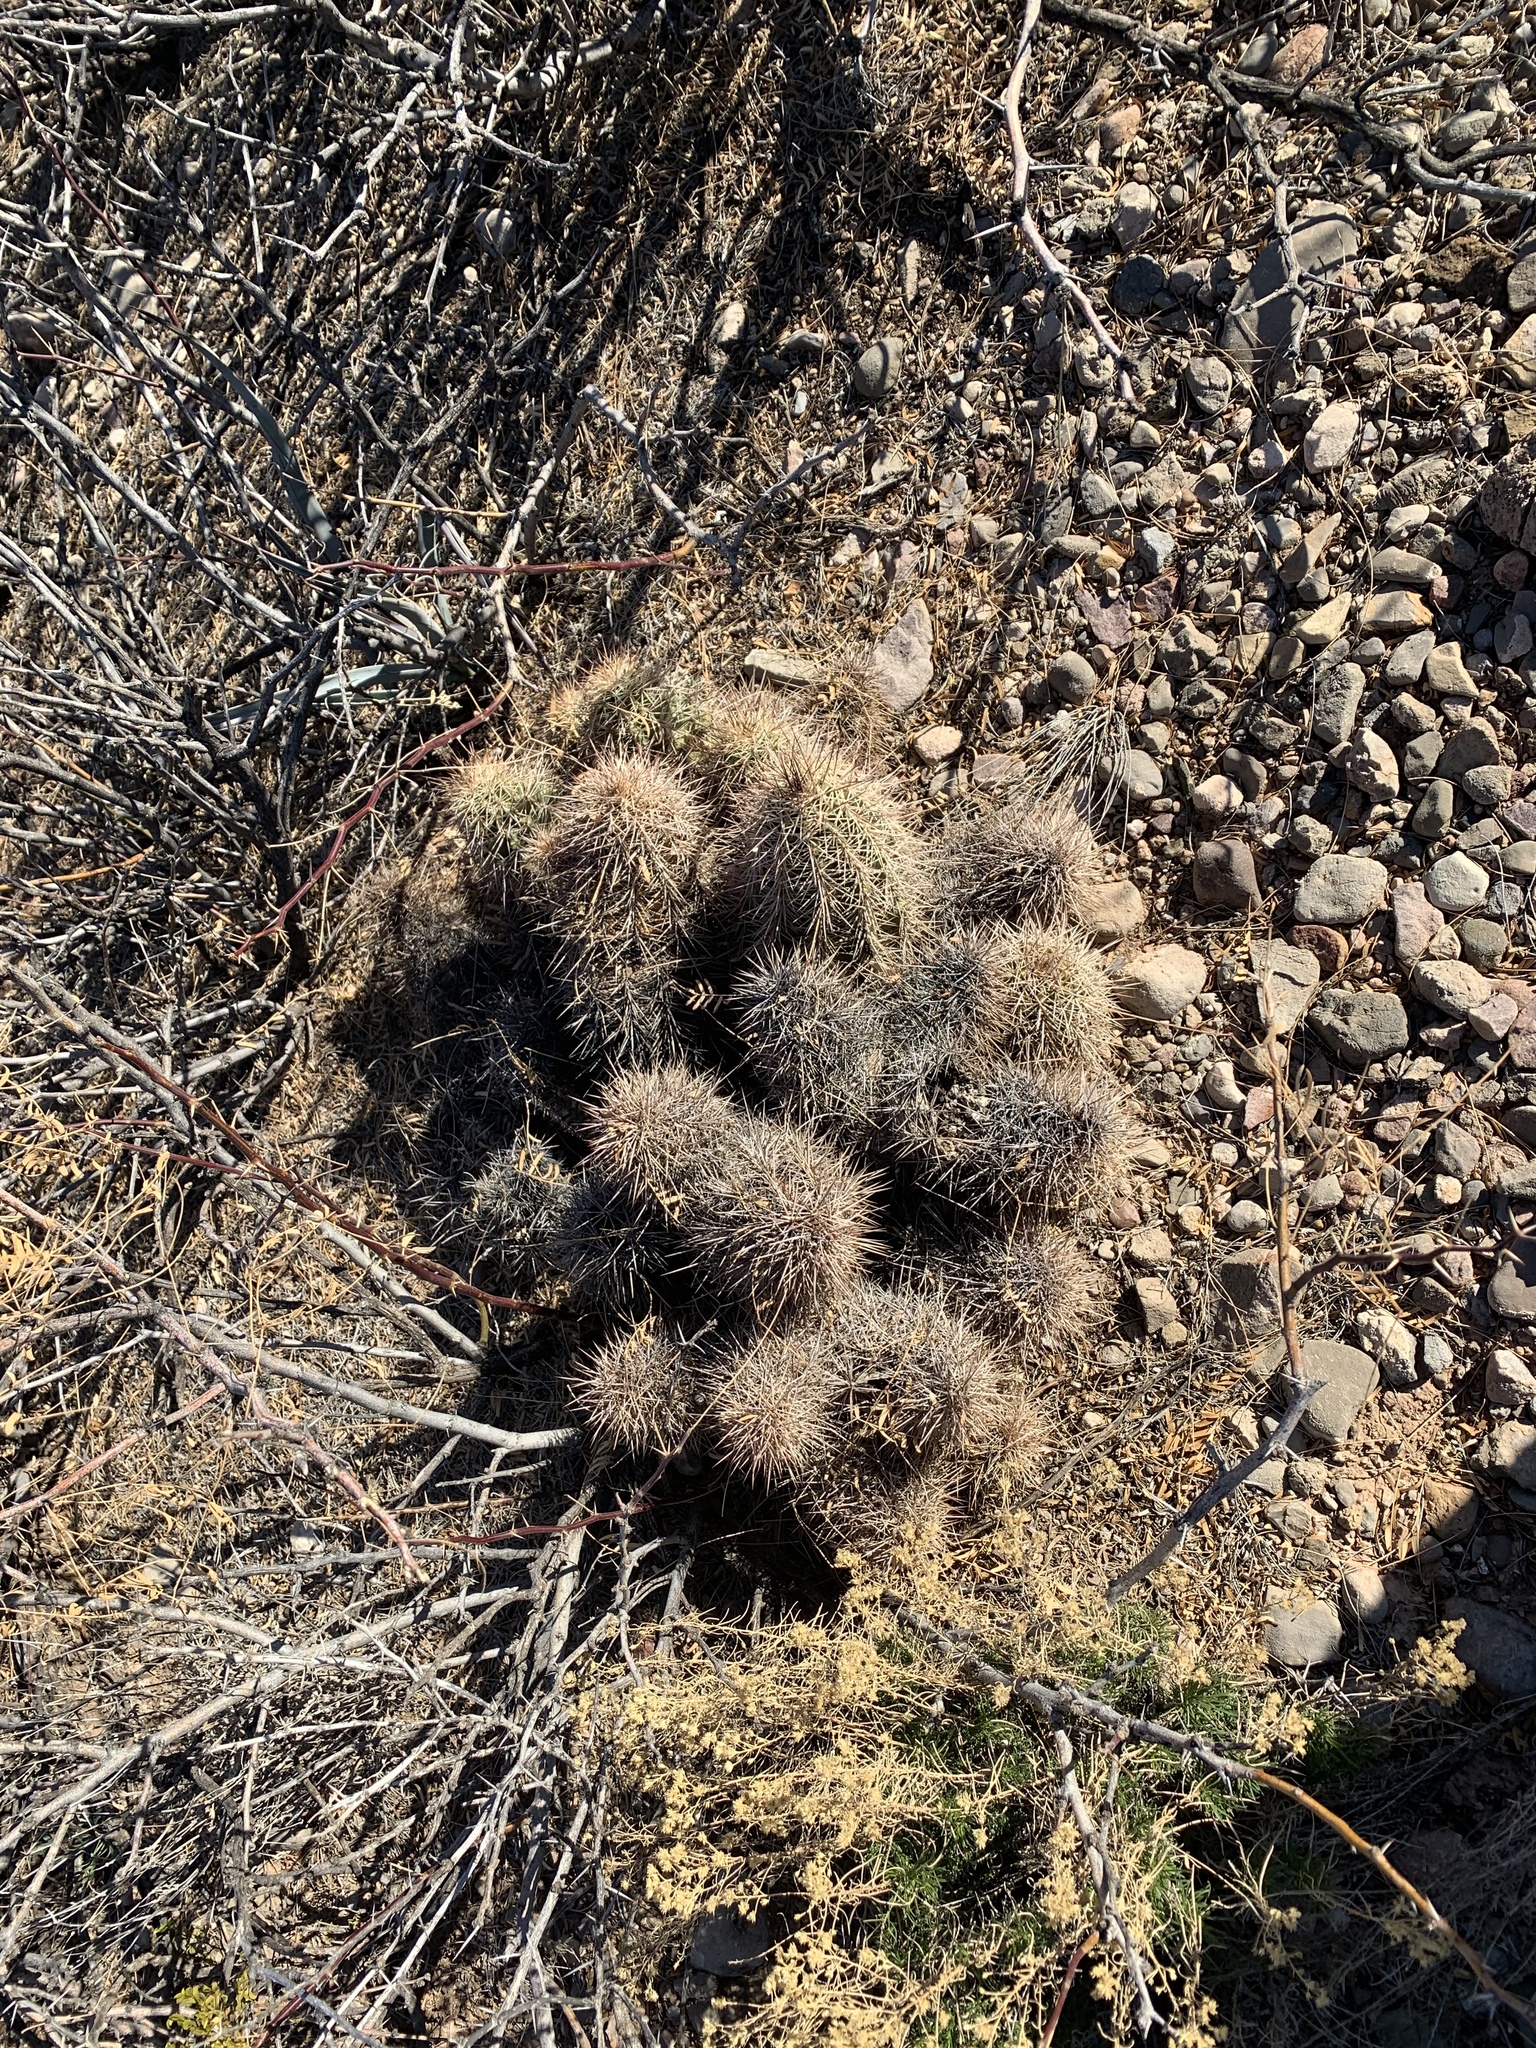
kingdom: Plantae
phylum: Tracheophyta
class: Magnoliopsida
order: Caryophyllales
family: Cactaceae
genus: Echinocereus
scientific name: Echinocereus coccineus
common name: Scarlet hedgehog cactus
